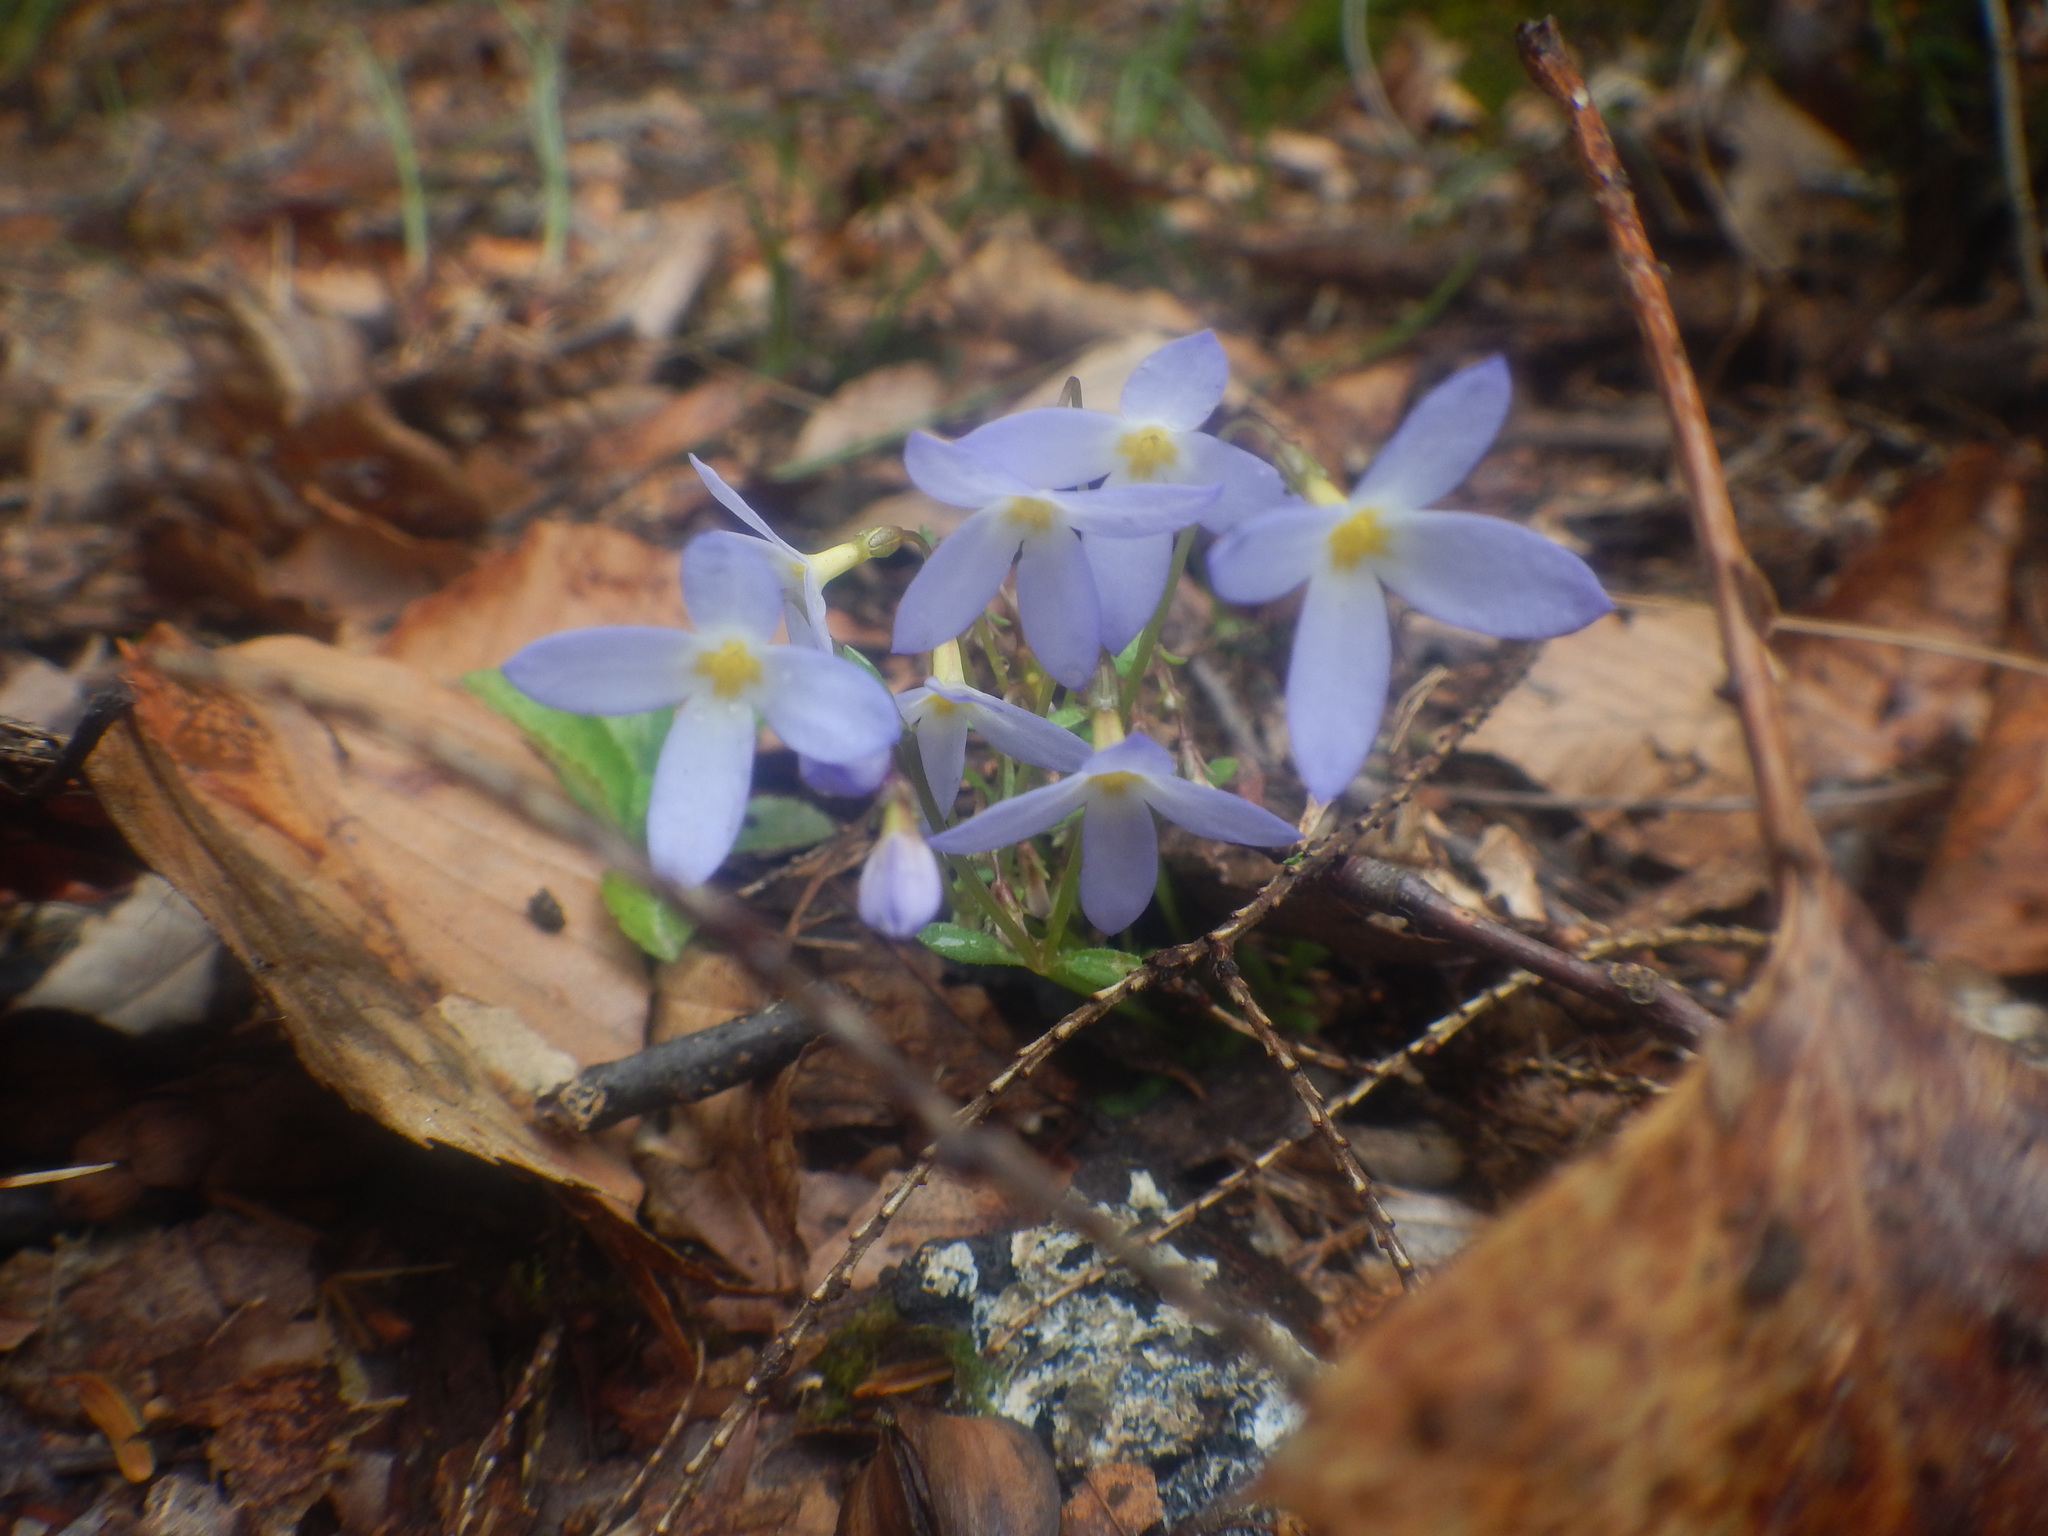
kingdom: Plantae
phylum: Tracheophyta
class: Magnoliopsida
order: Gentianales
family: Rubiaceae
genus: Houstonia
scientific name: Houstonia caerulea
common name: Bluets
